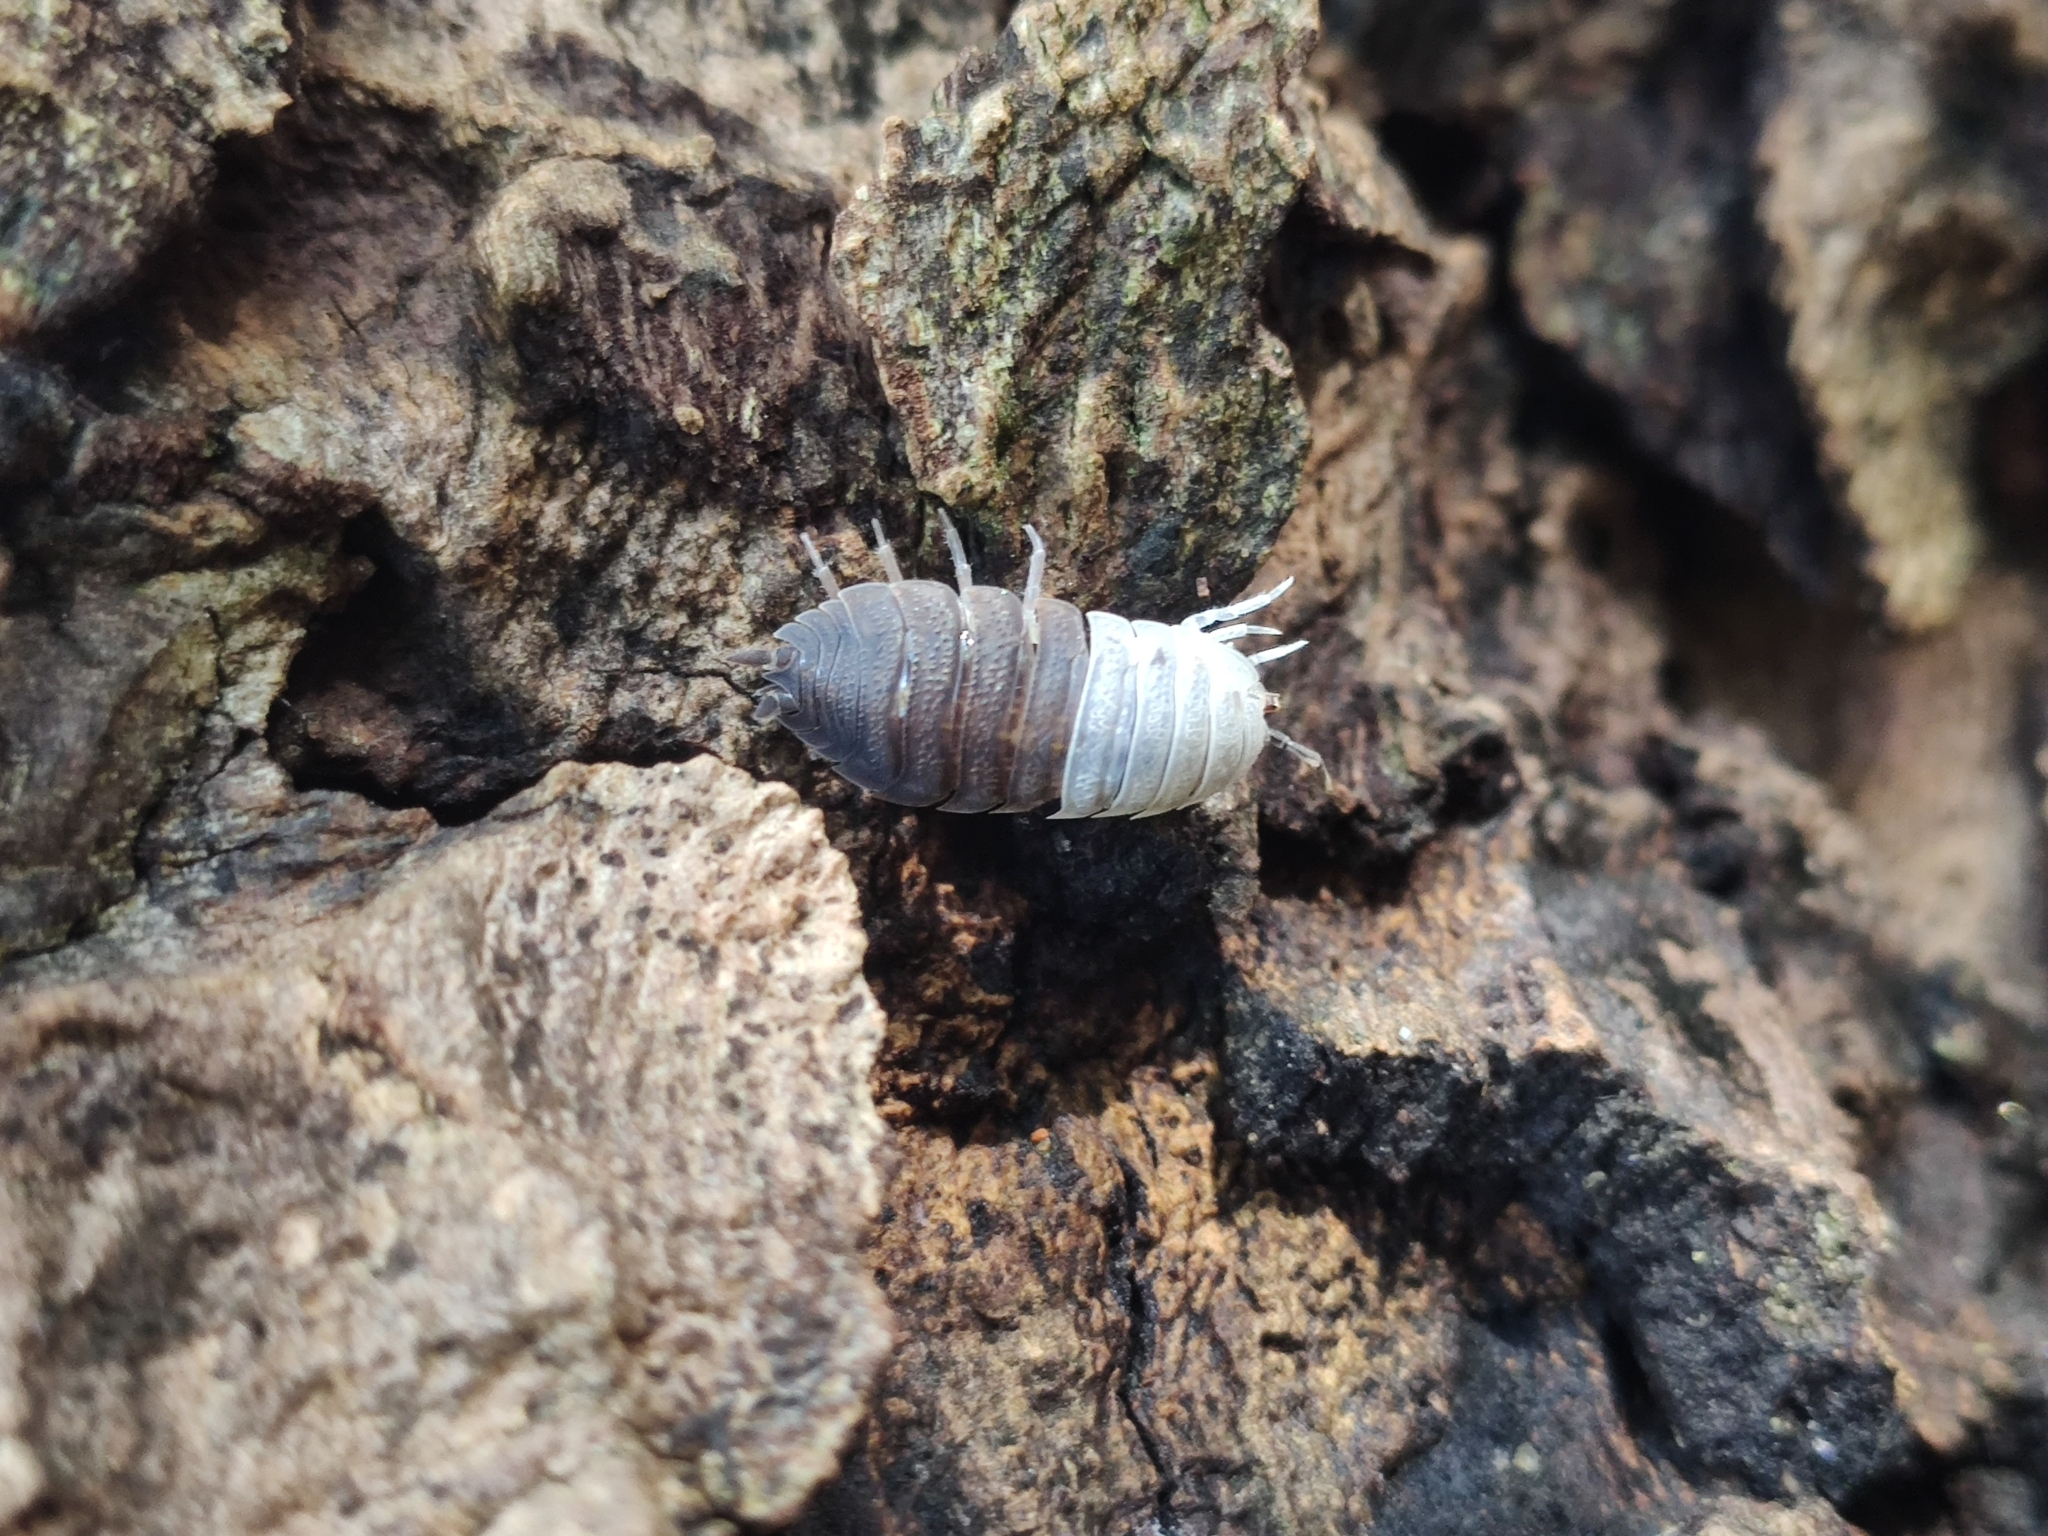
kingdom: Animalia
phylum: Arthropoda
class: Malacostraca
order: Isopoda
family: Porcellionidae
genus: Porcellio
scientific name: Porcellio scaber
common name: Common rough woodlouse
